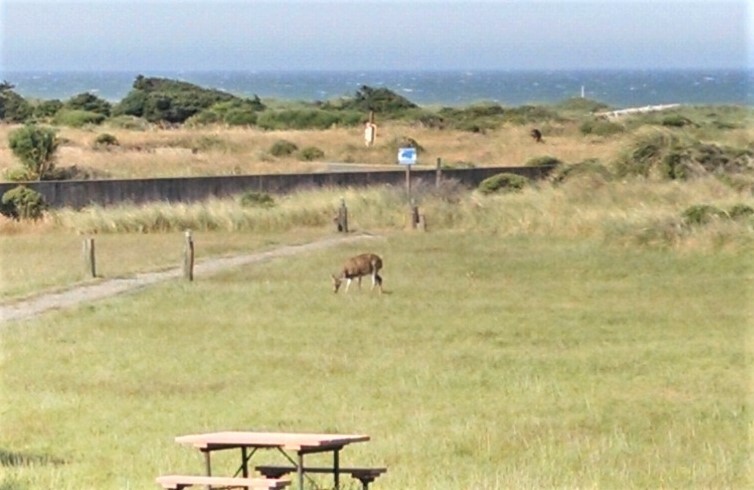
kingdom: Animalia
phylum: Chordata
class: Mammalia
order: Artiodactyla
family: Cervidae
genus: Odocoileus
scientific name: Odocoileus hemionus
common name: Mule deer
